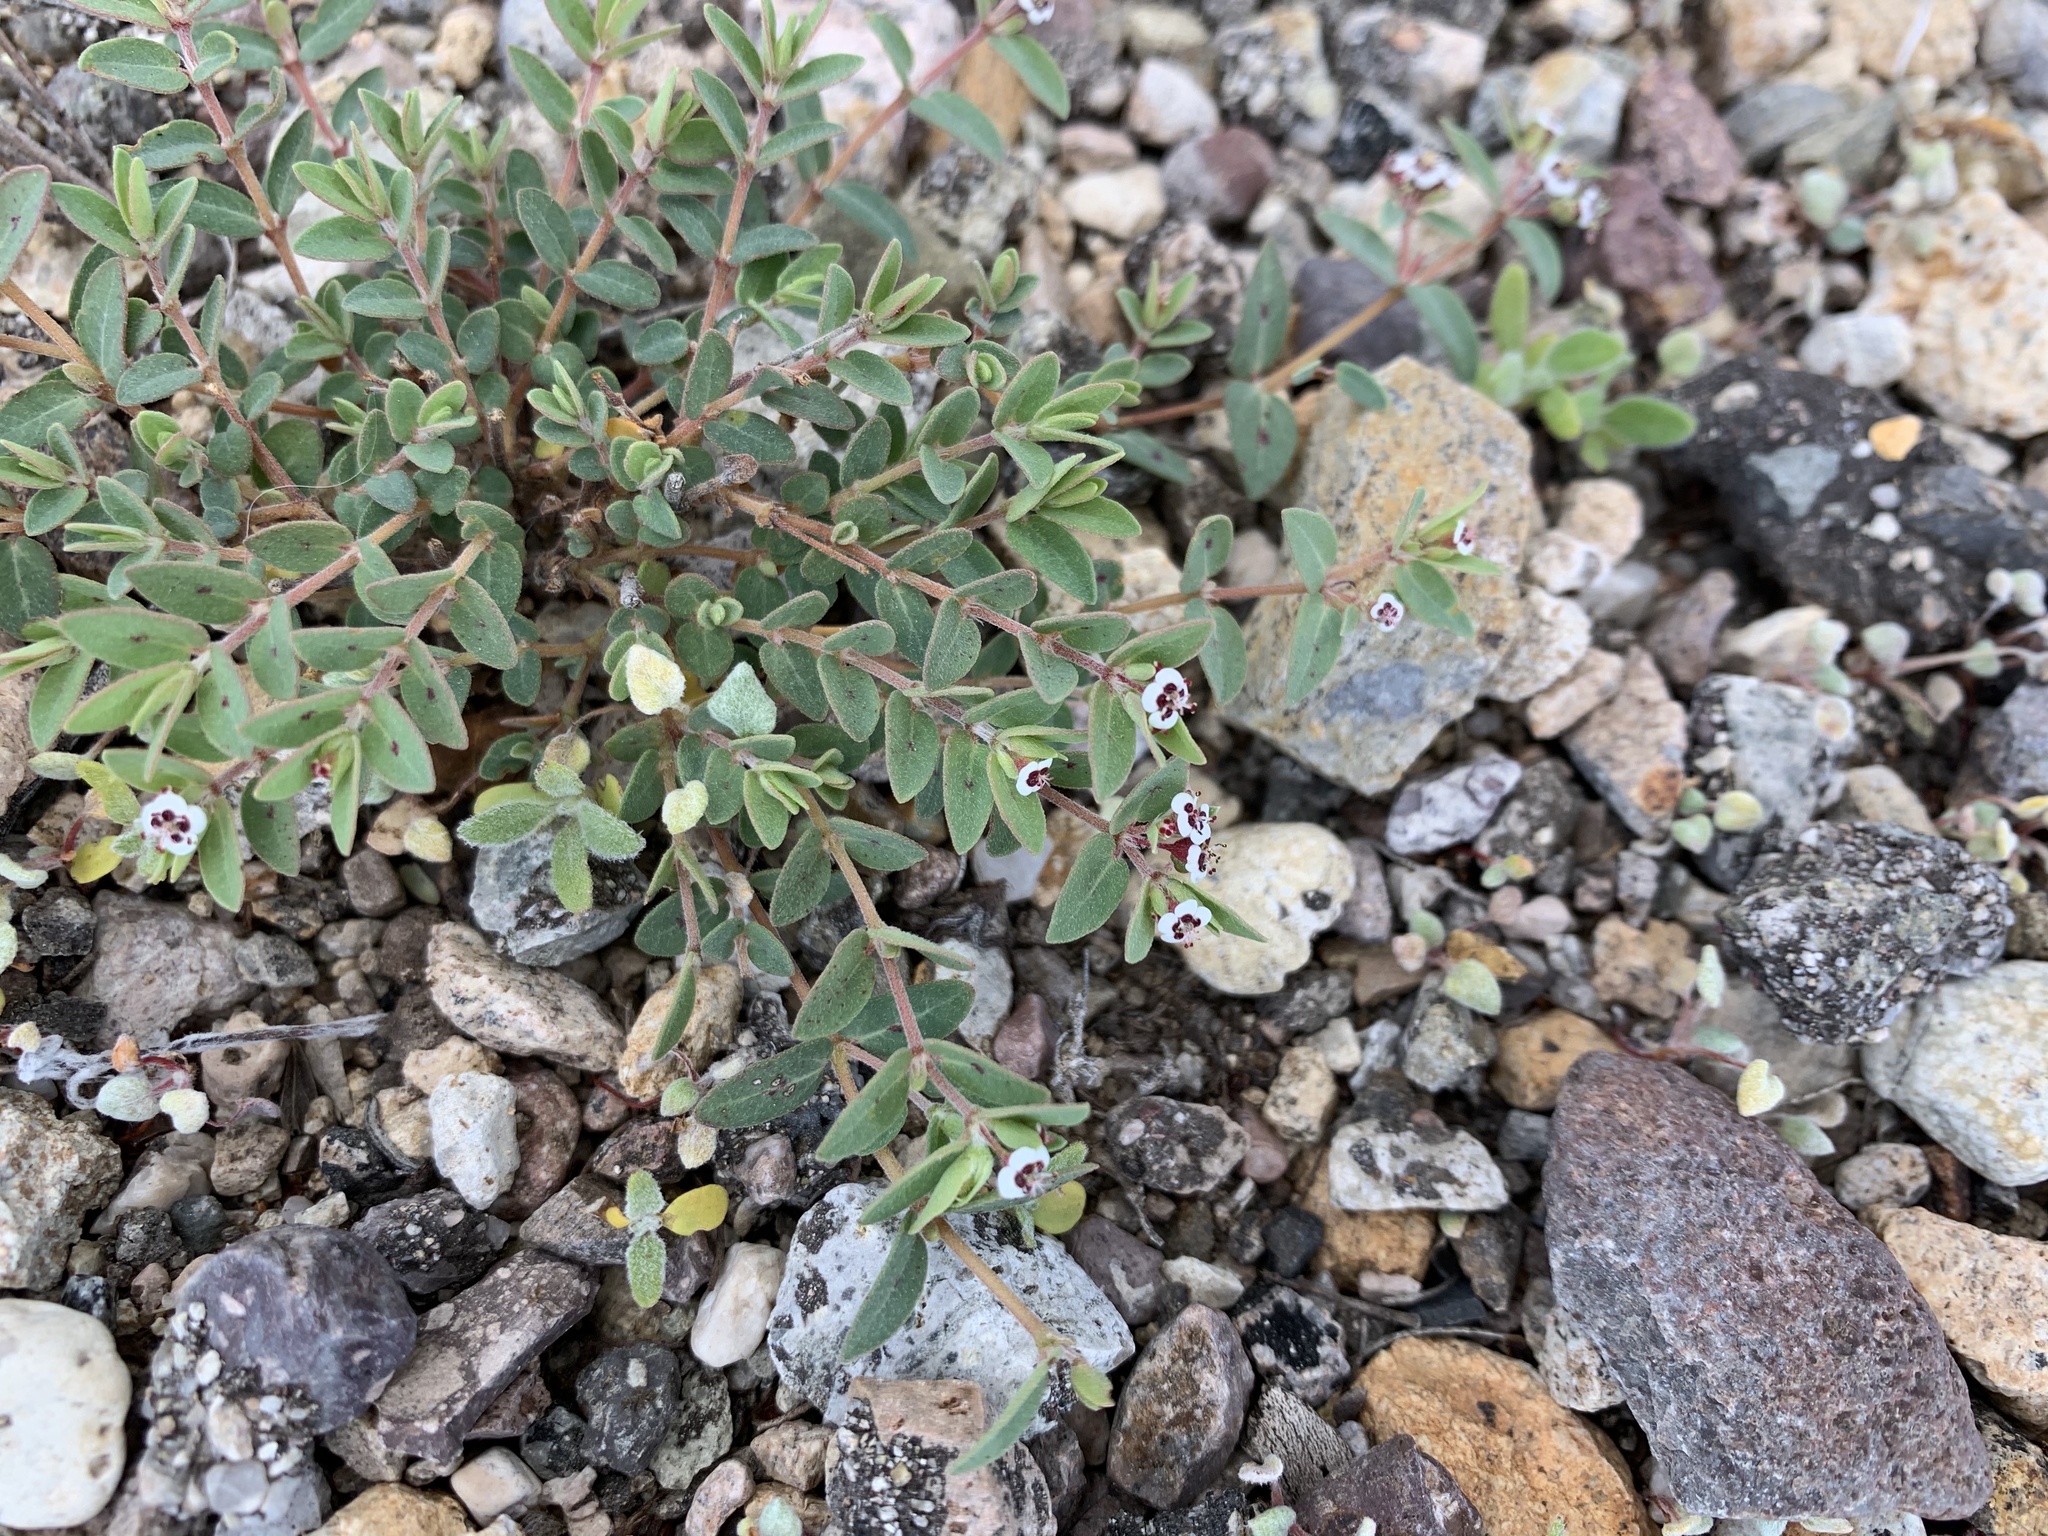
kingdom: Plantae
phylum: Tracheophyta
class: Magnoliopsida
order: Malpighiales
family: Euphorbiaceae
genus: Euphorbia
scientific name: Euphorbia capitellata
